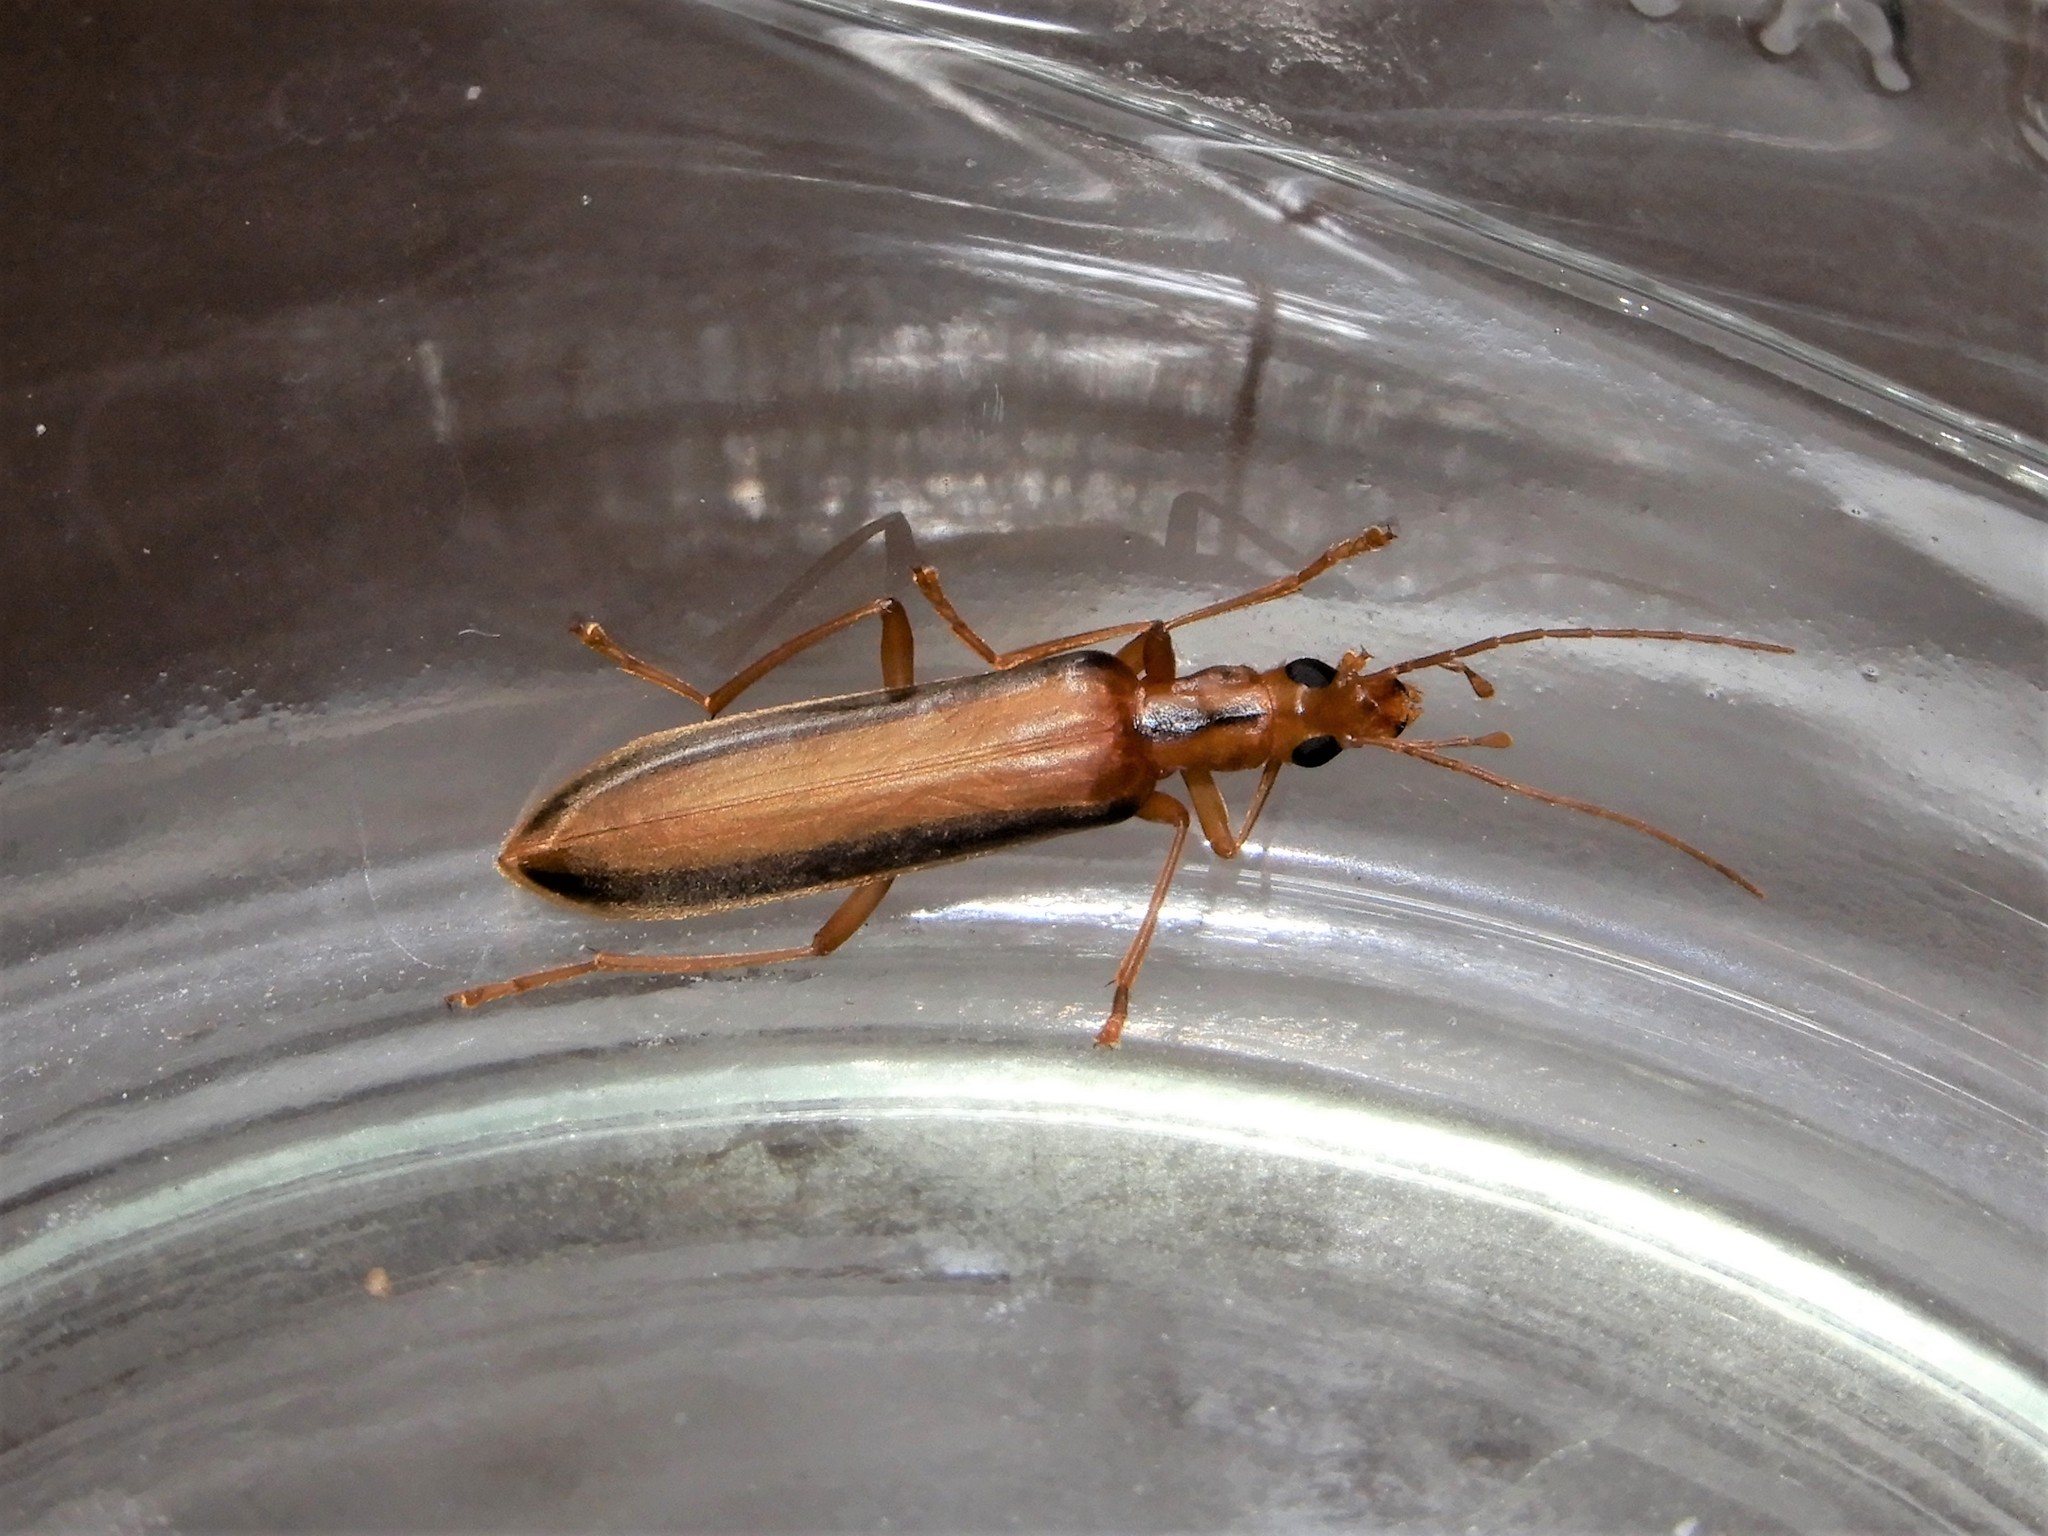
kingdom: Animalia
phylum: Arthropoda
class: Insecta
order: Coleoptera
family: Oedemeridae
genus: Thelyphassa
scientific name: Thelyphassa
